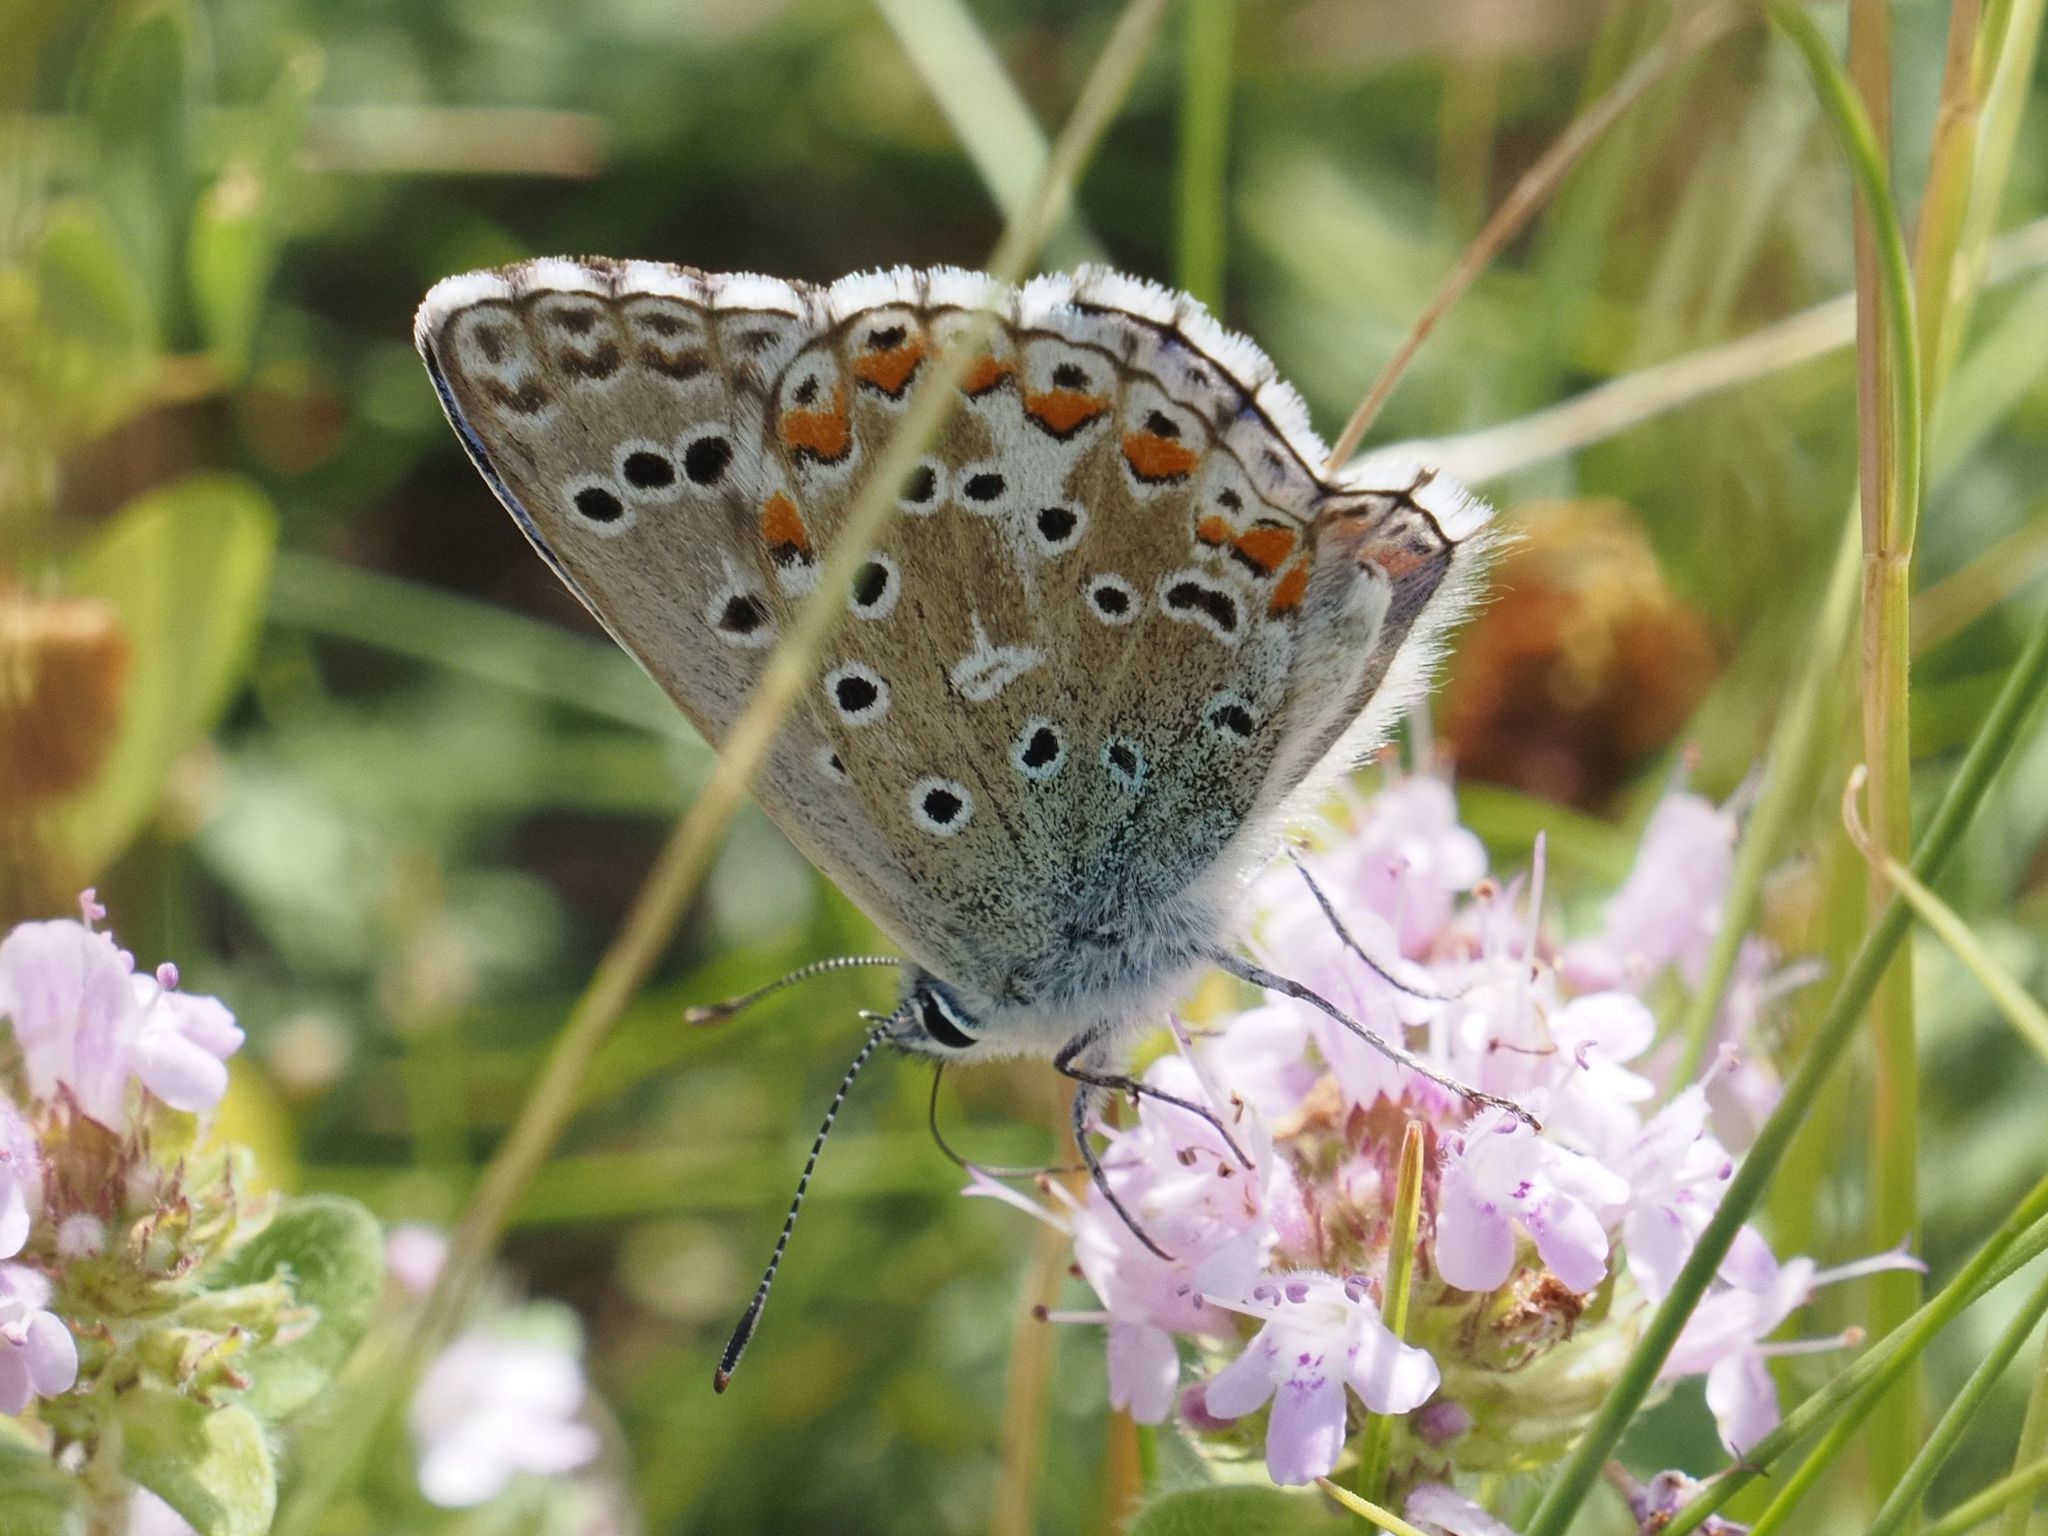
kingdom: Animalia
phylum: Arthropoda
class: Insecta
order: Lepidoptera
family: Lycaenidae
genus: Lysandra
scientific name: Lysandra bellargus
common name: Adonis blue
